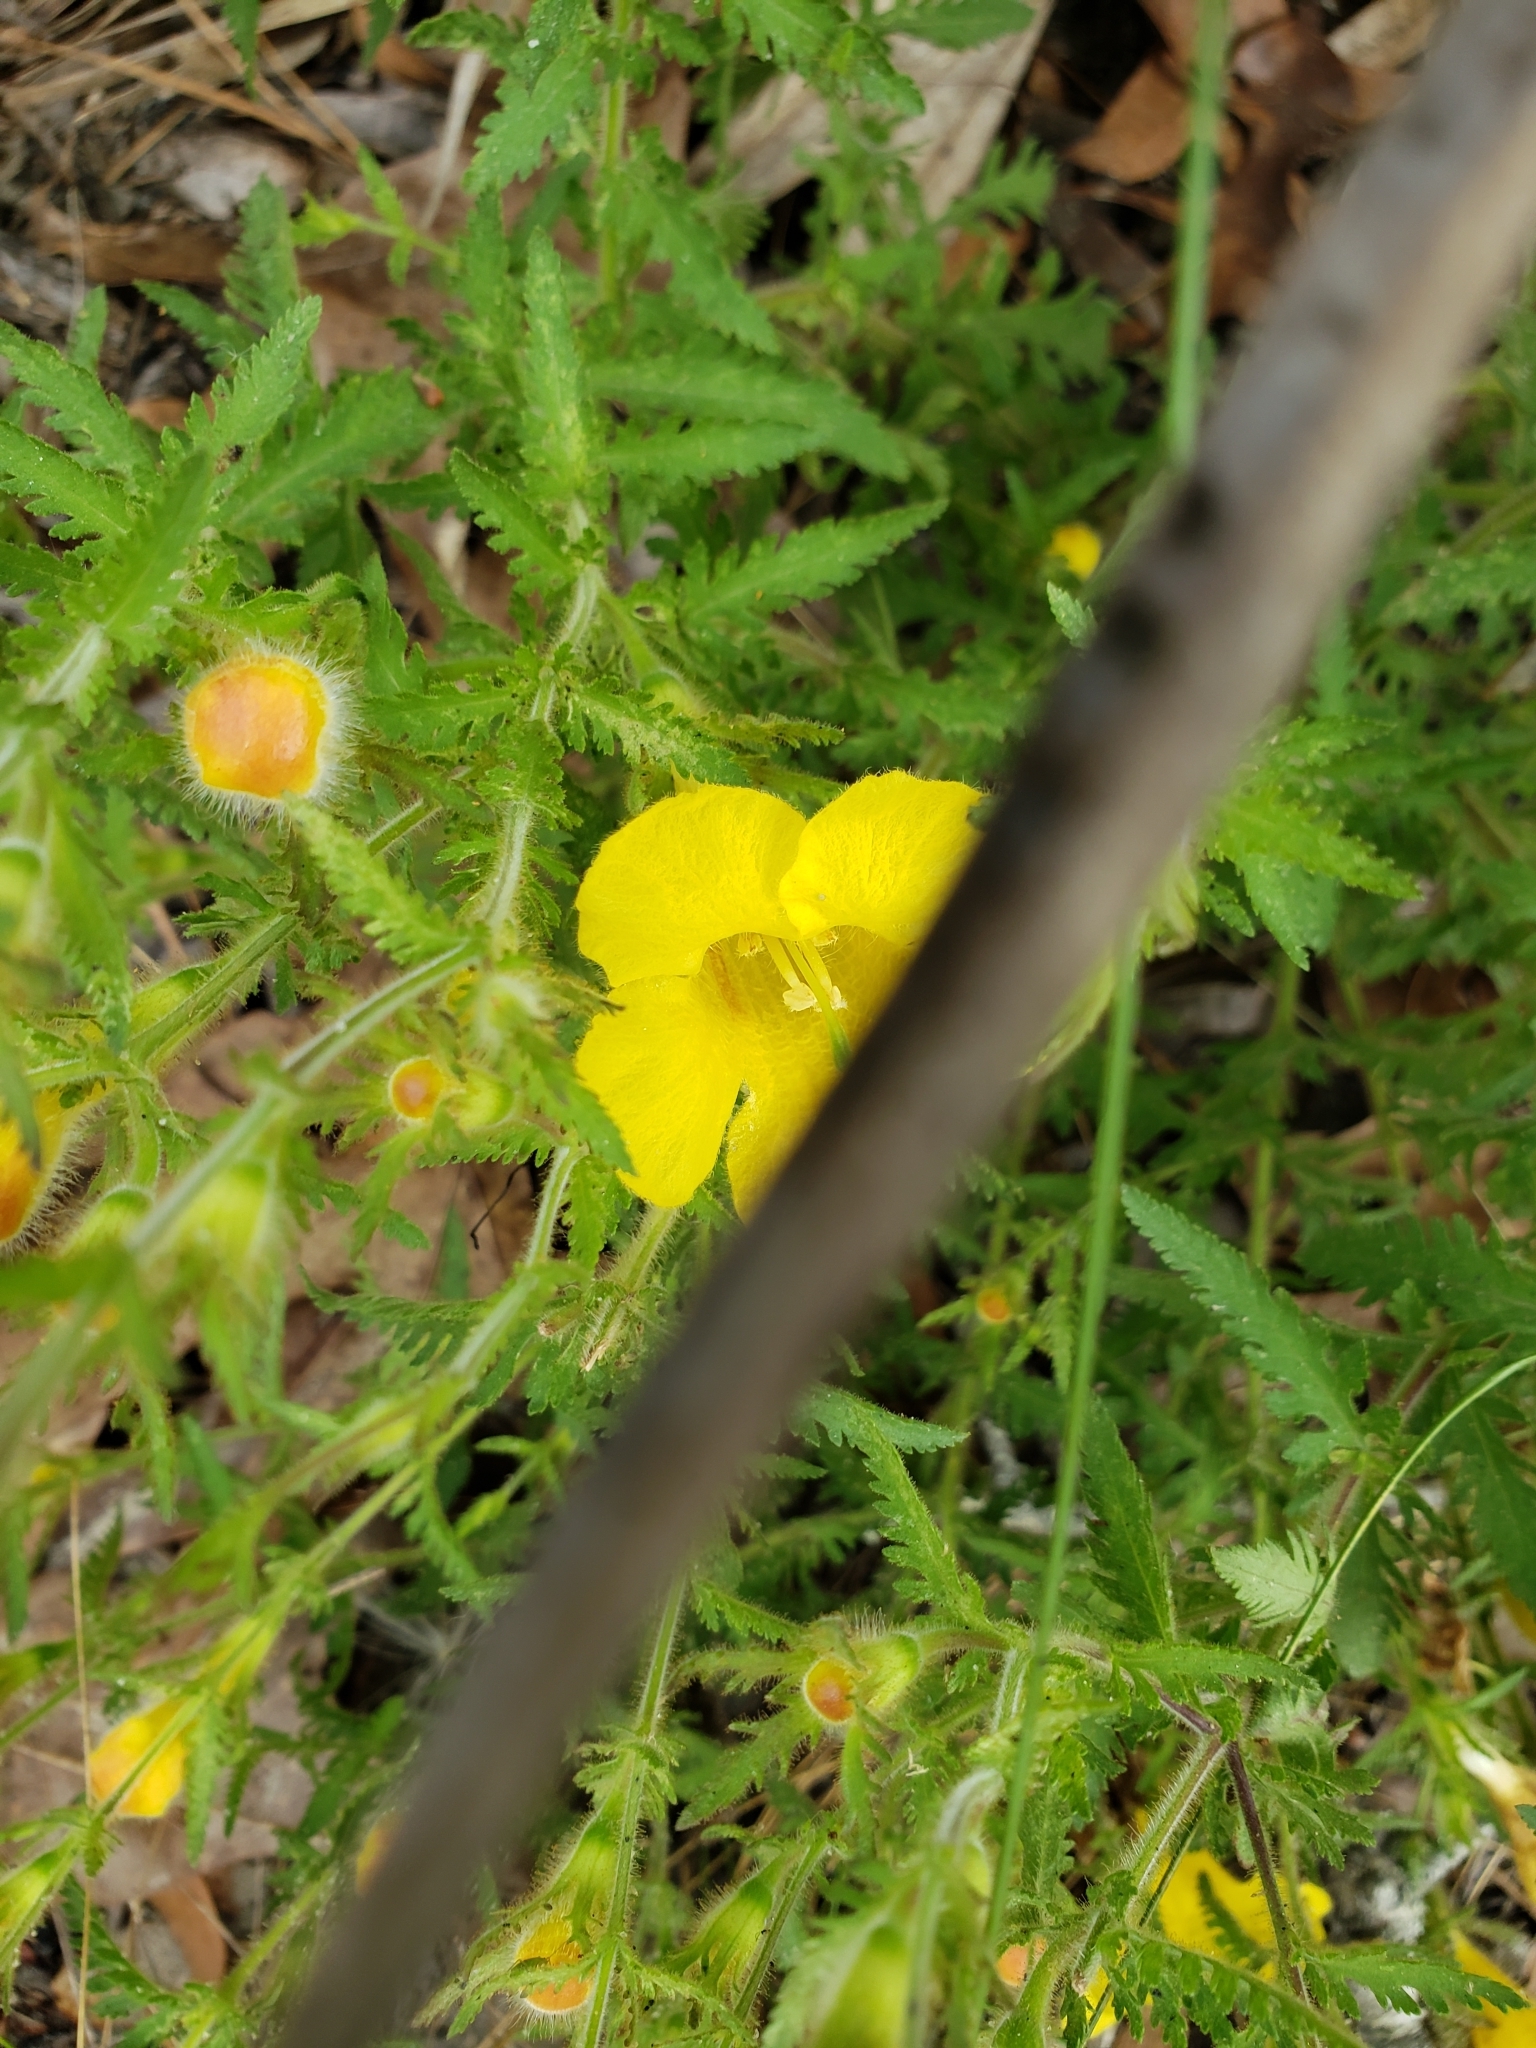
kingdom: Plantae
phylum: Tracheophyta
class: Magnoliopsida
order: Lamiales
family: Orobanchaceae
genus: Aureolaria
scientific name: Aureolaria pectinata
